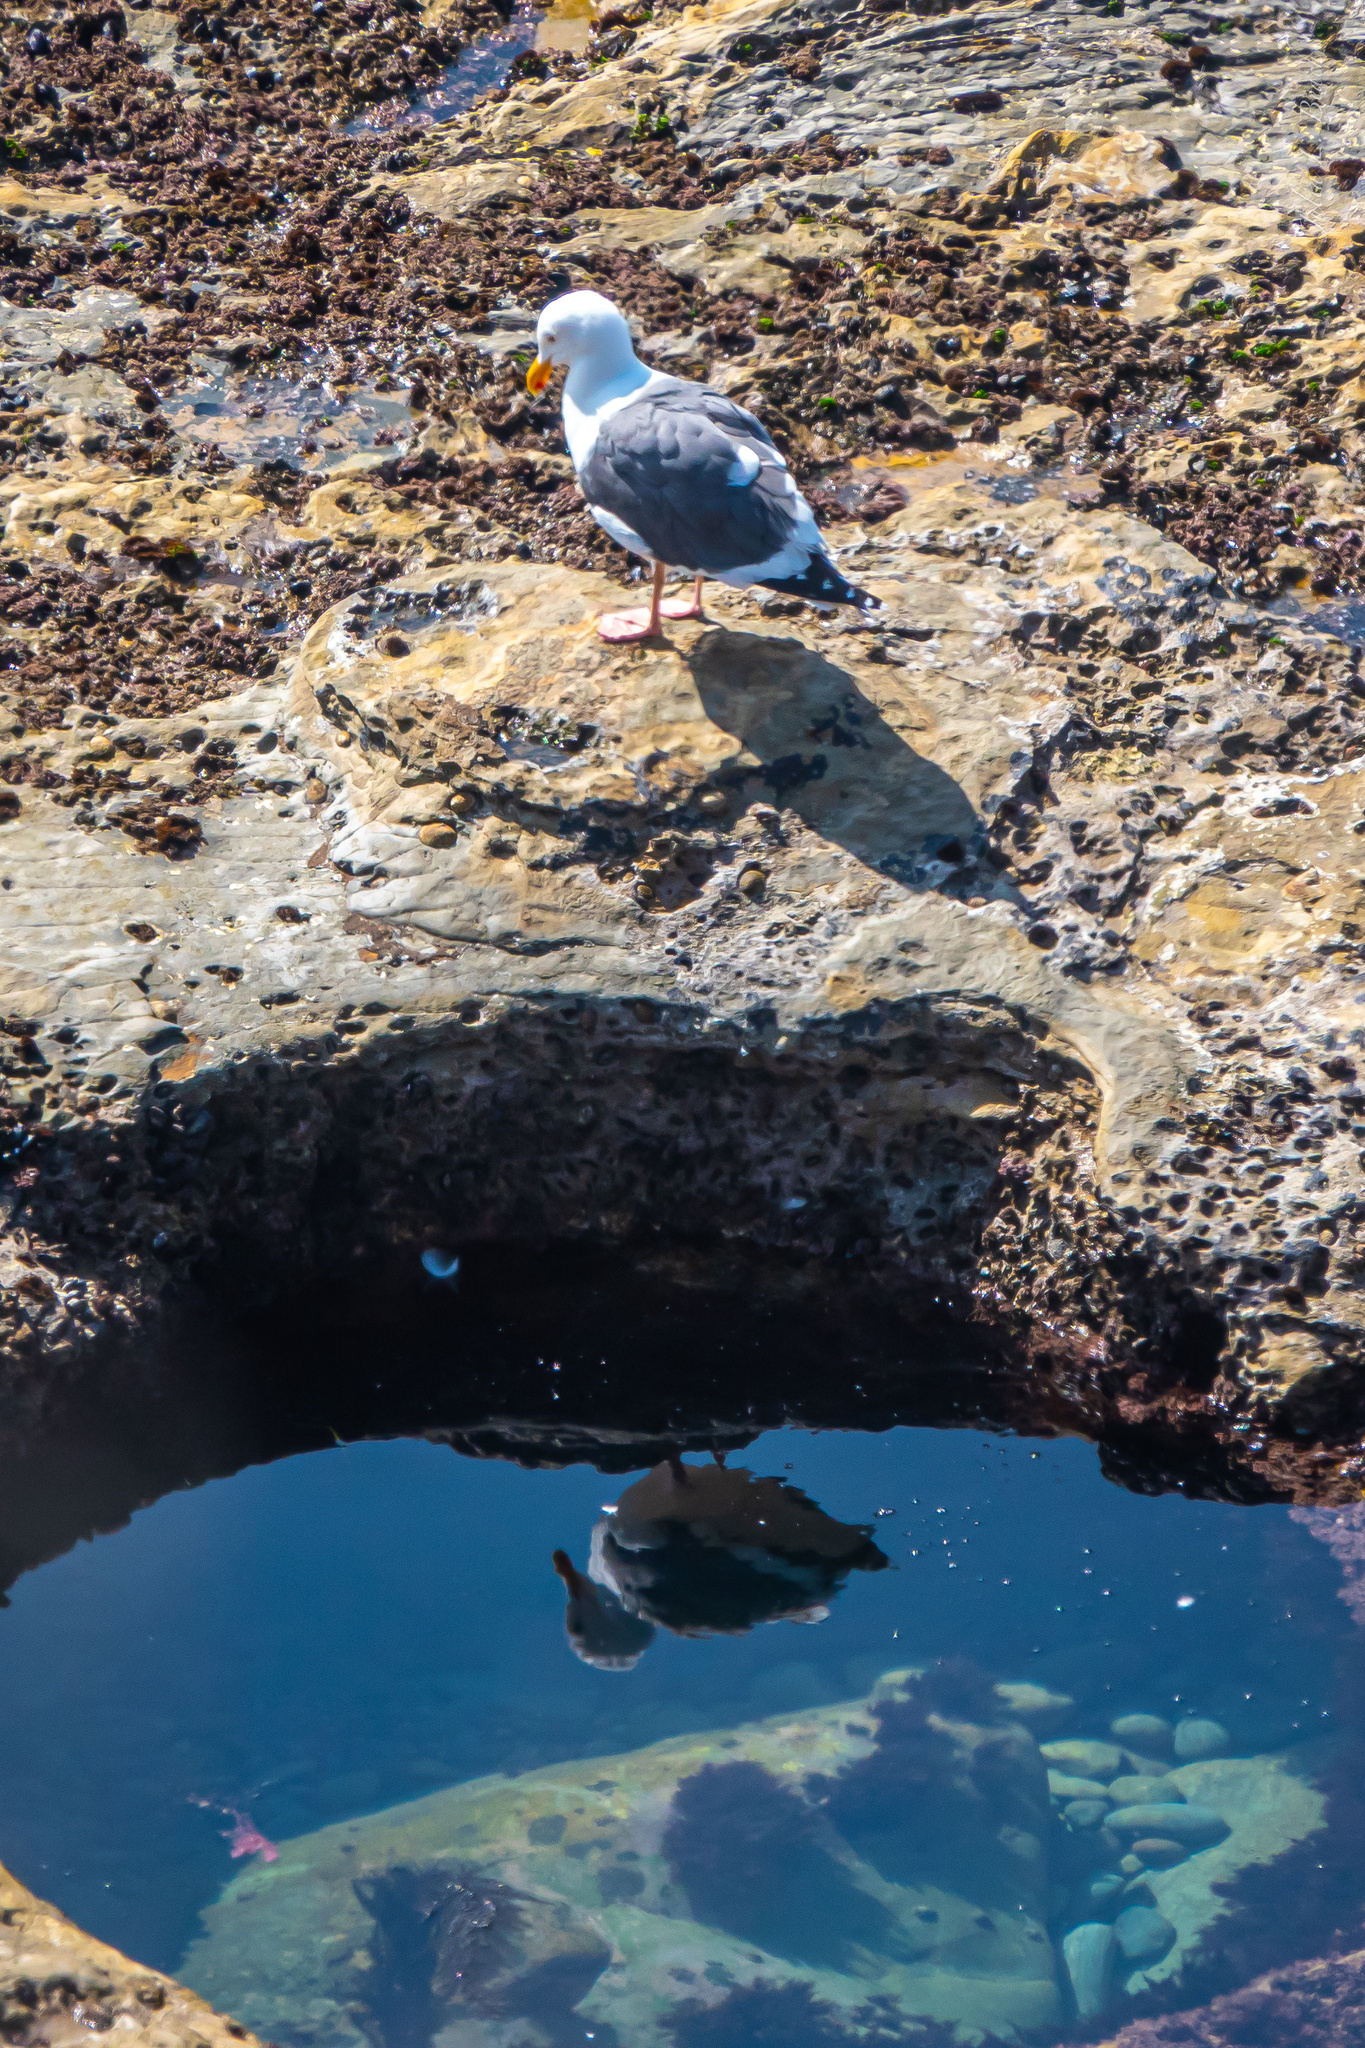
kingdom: Animalia
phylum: Chordata
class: Aves
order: Charadriiformes
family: Laridae
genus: Larus
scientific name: Larus occidentalis
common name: Western gull
